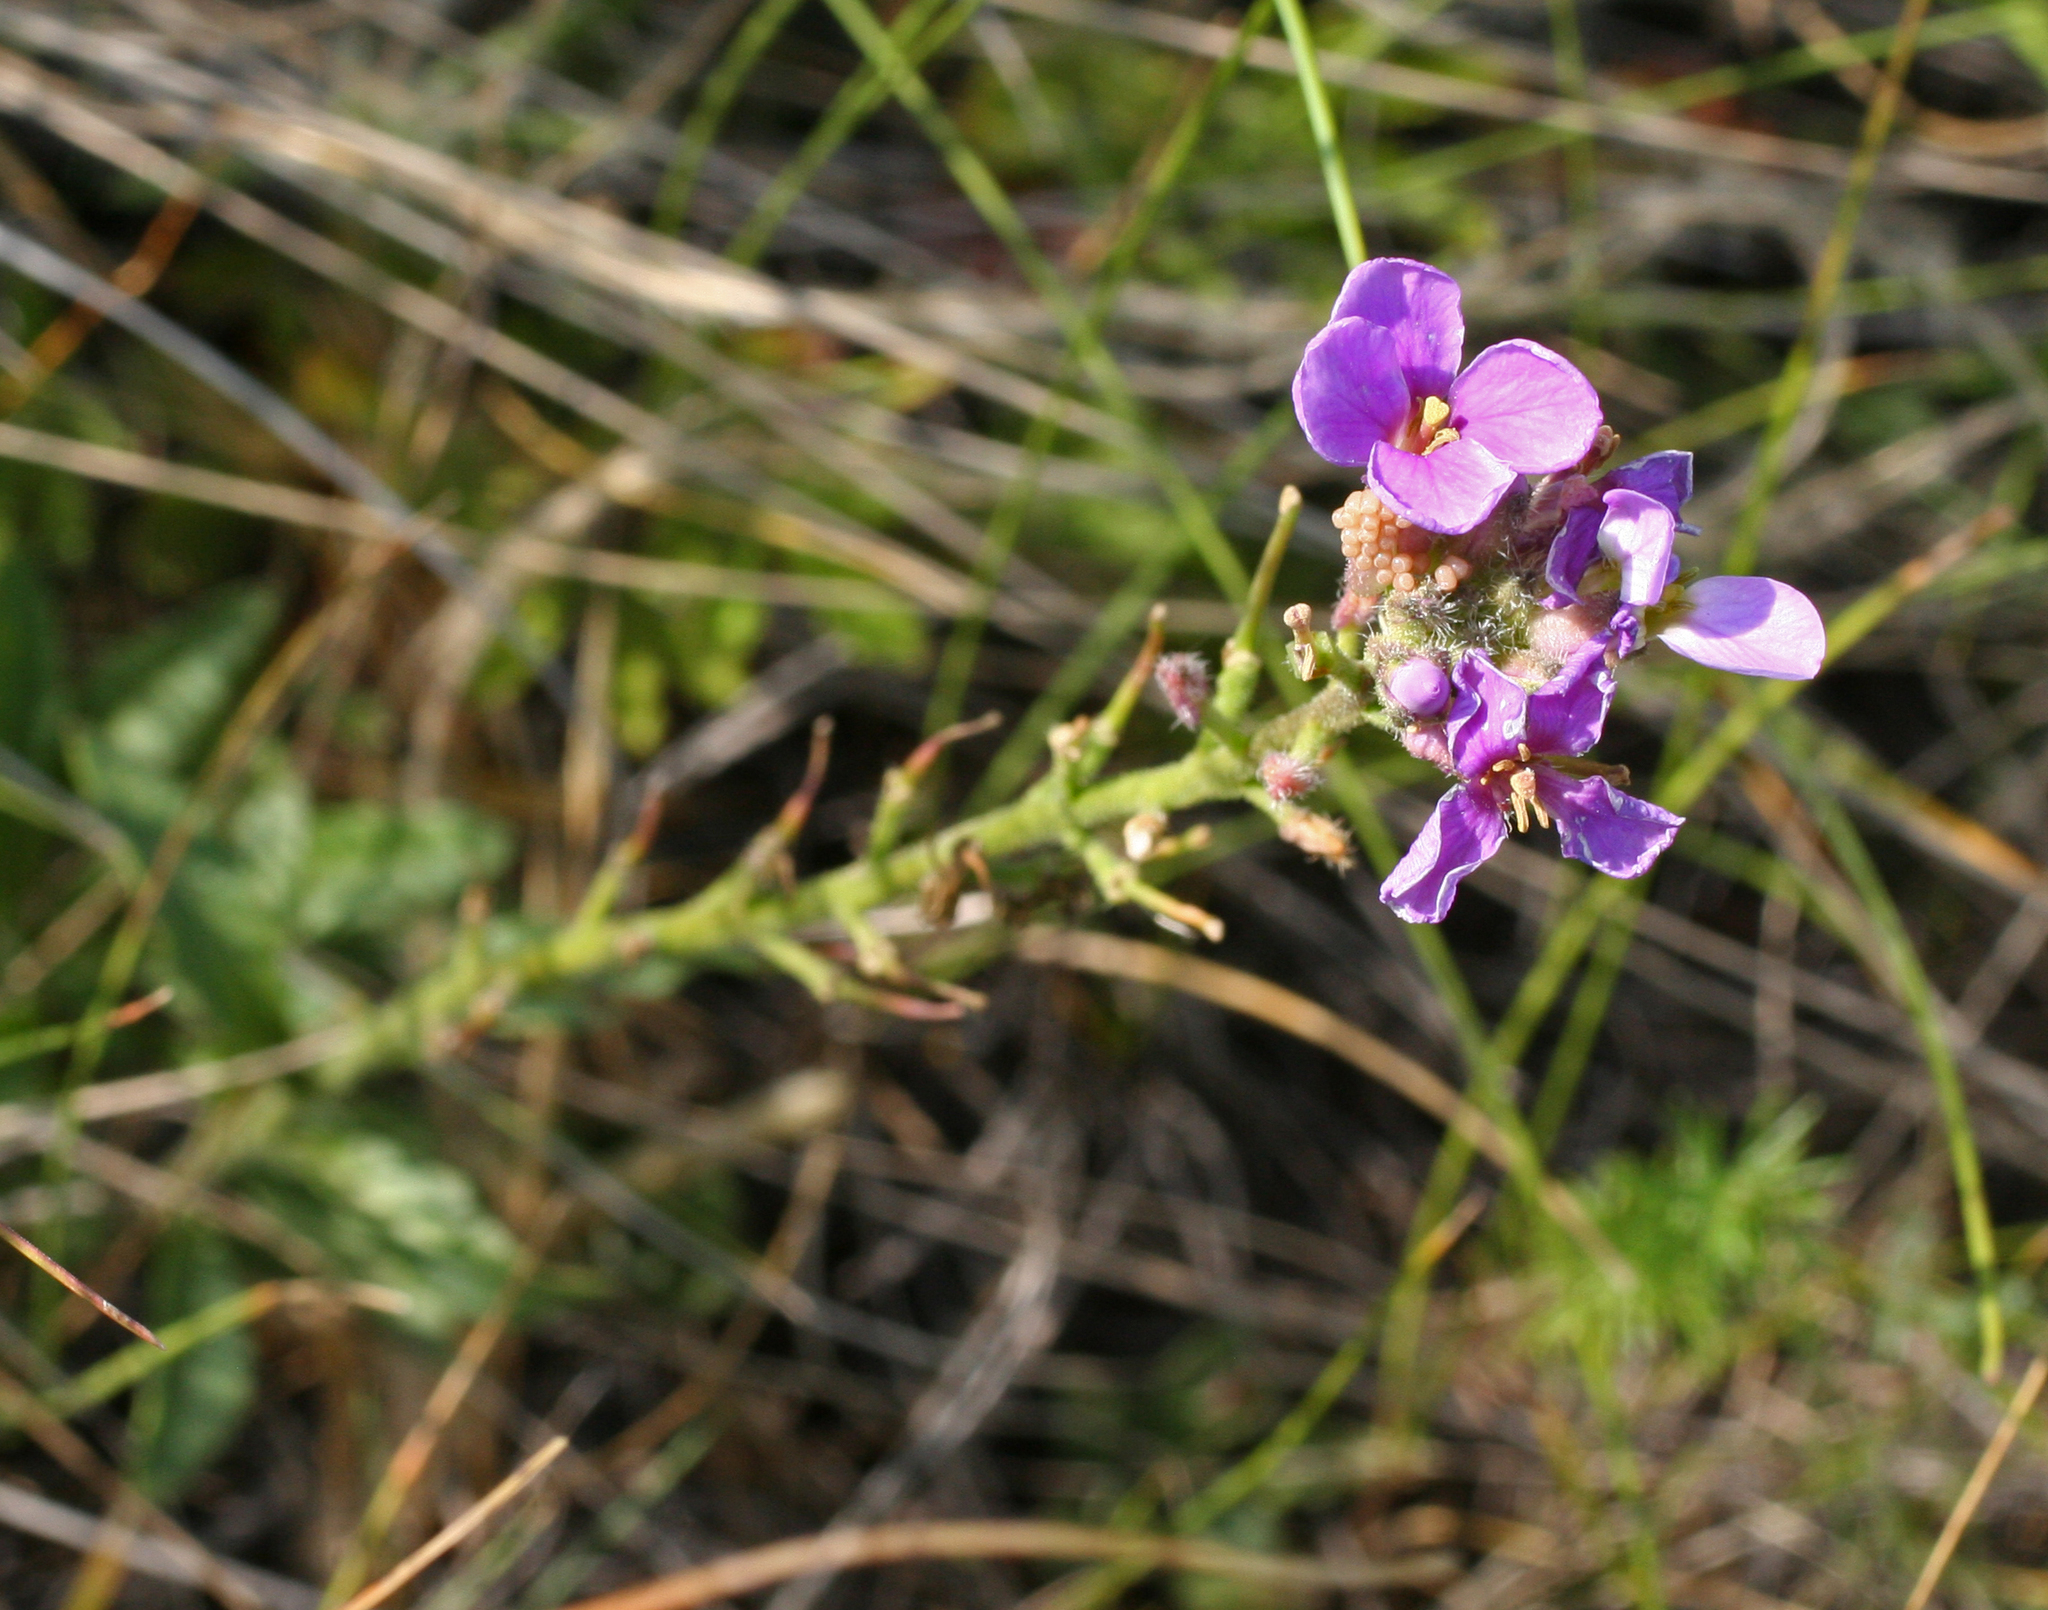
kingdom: Plantae
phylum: Tracheophyta
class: Magnoliopsida
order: Brassicales
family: Brassicaceae
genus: Clausia
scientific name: Clausia aprica
